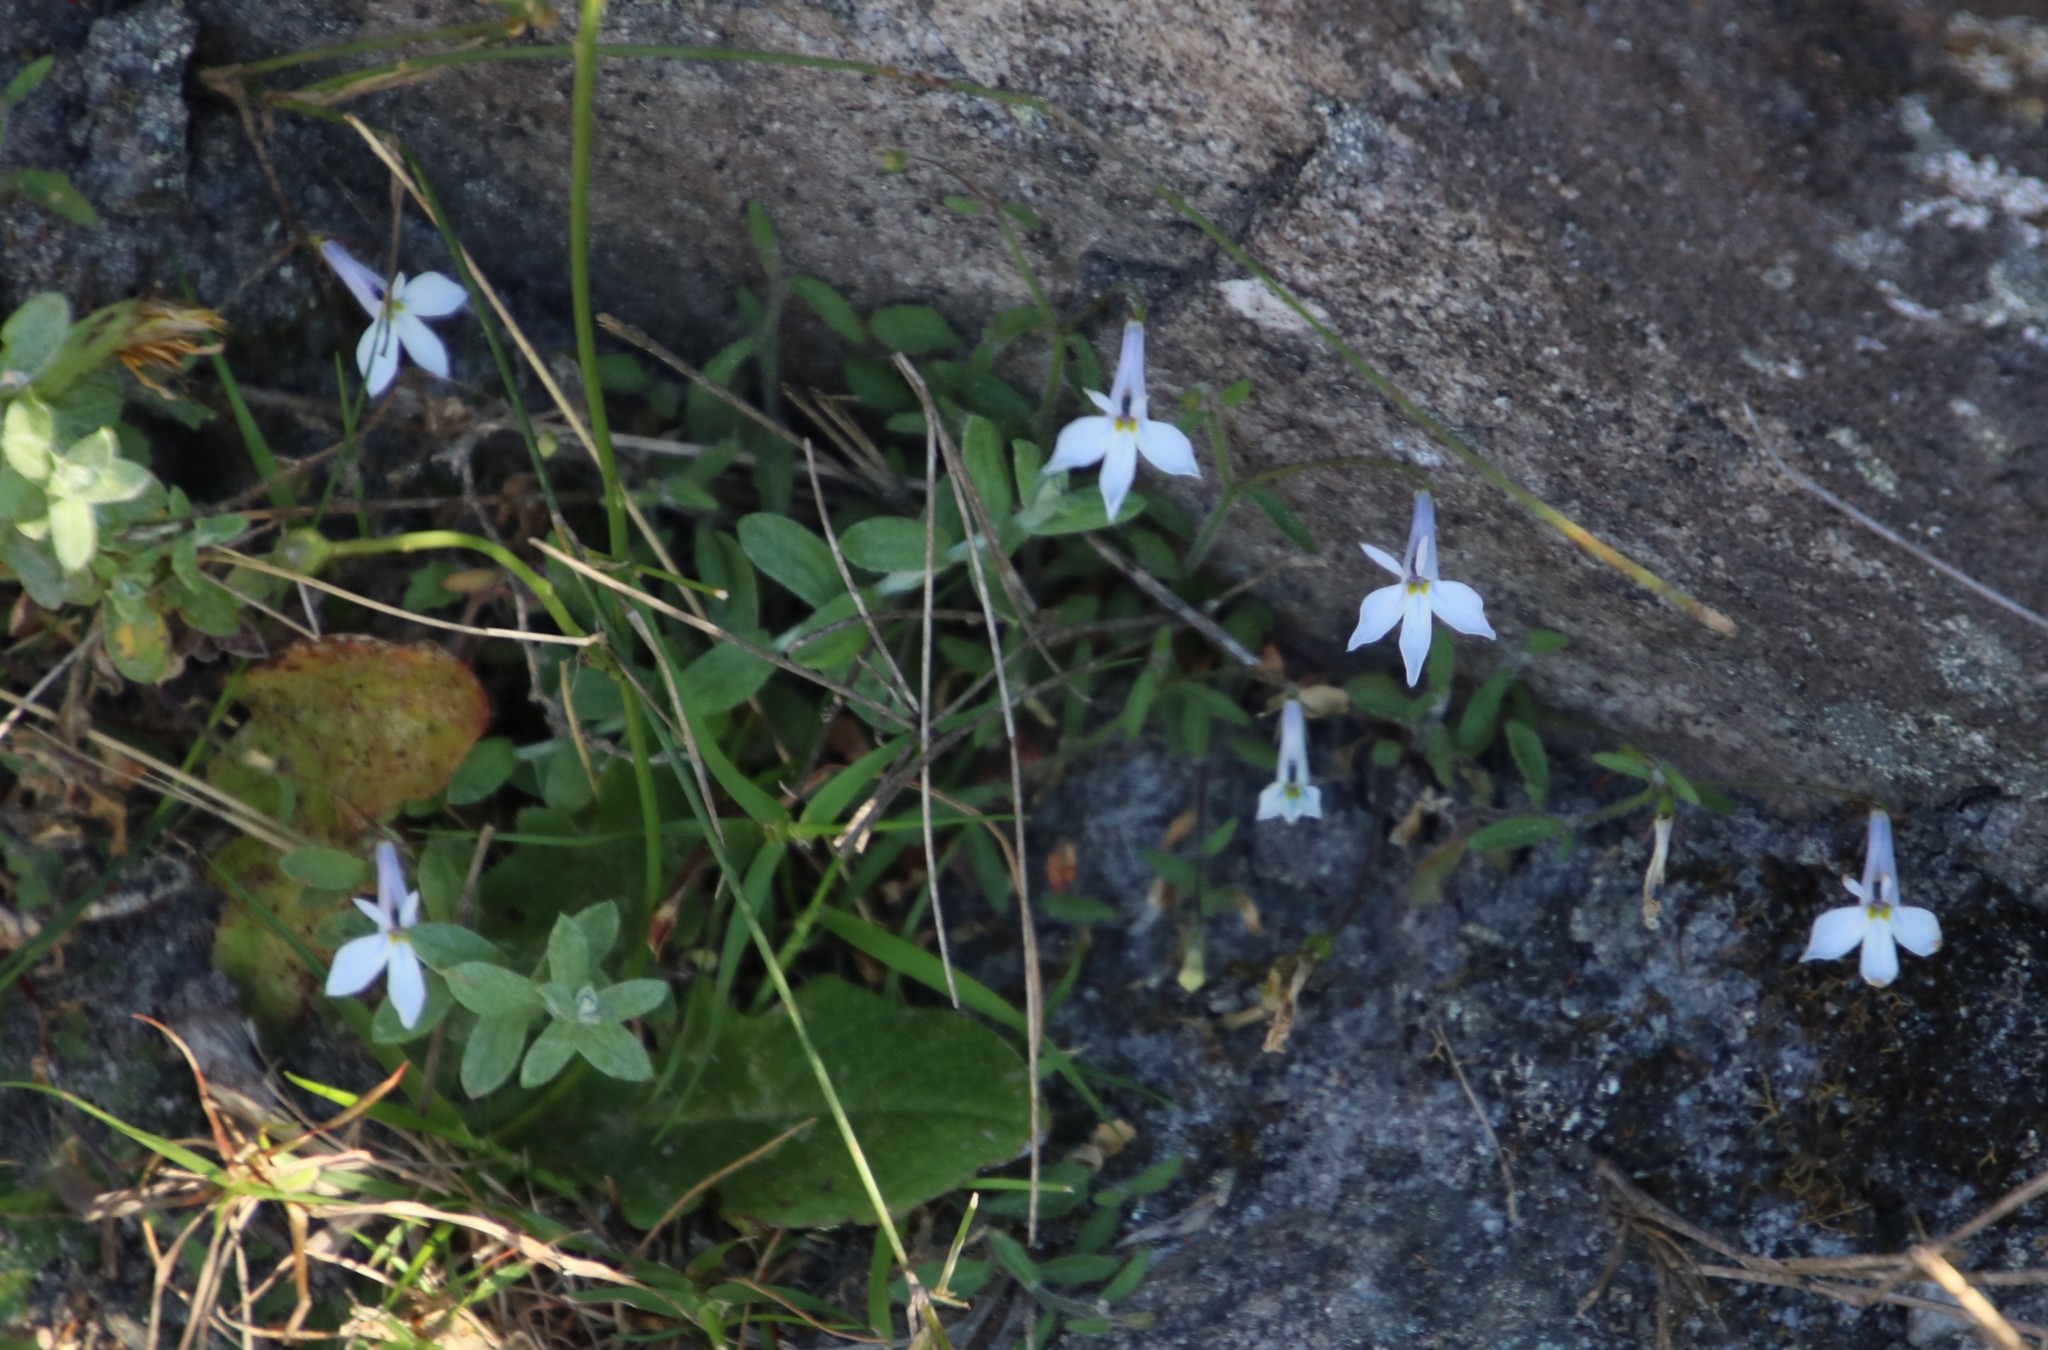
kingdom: Plantae
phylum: Tracheophyta
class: Magnoliopsida
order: Asterales
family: Campanulaceae
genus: Lobelia
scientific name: Lobelia pubescens
